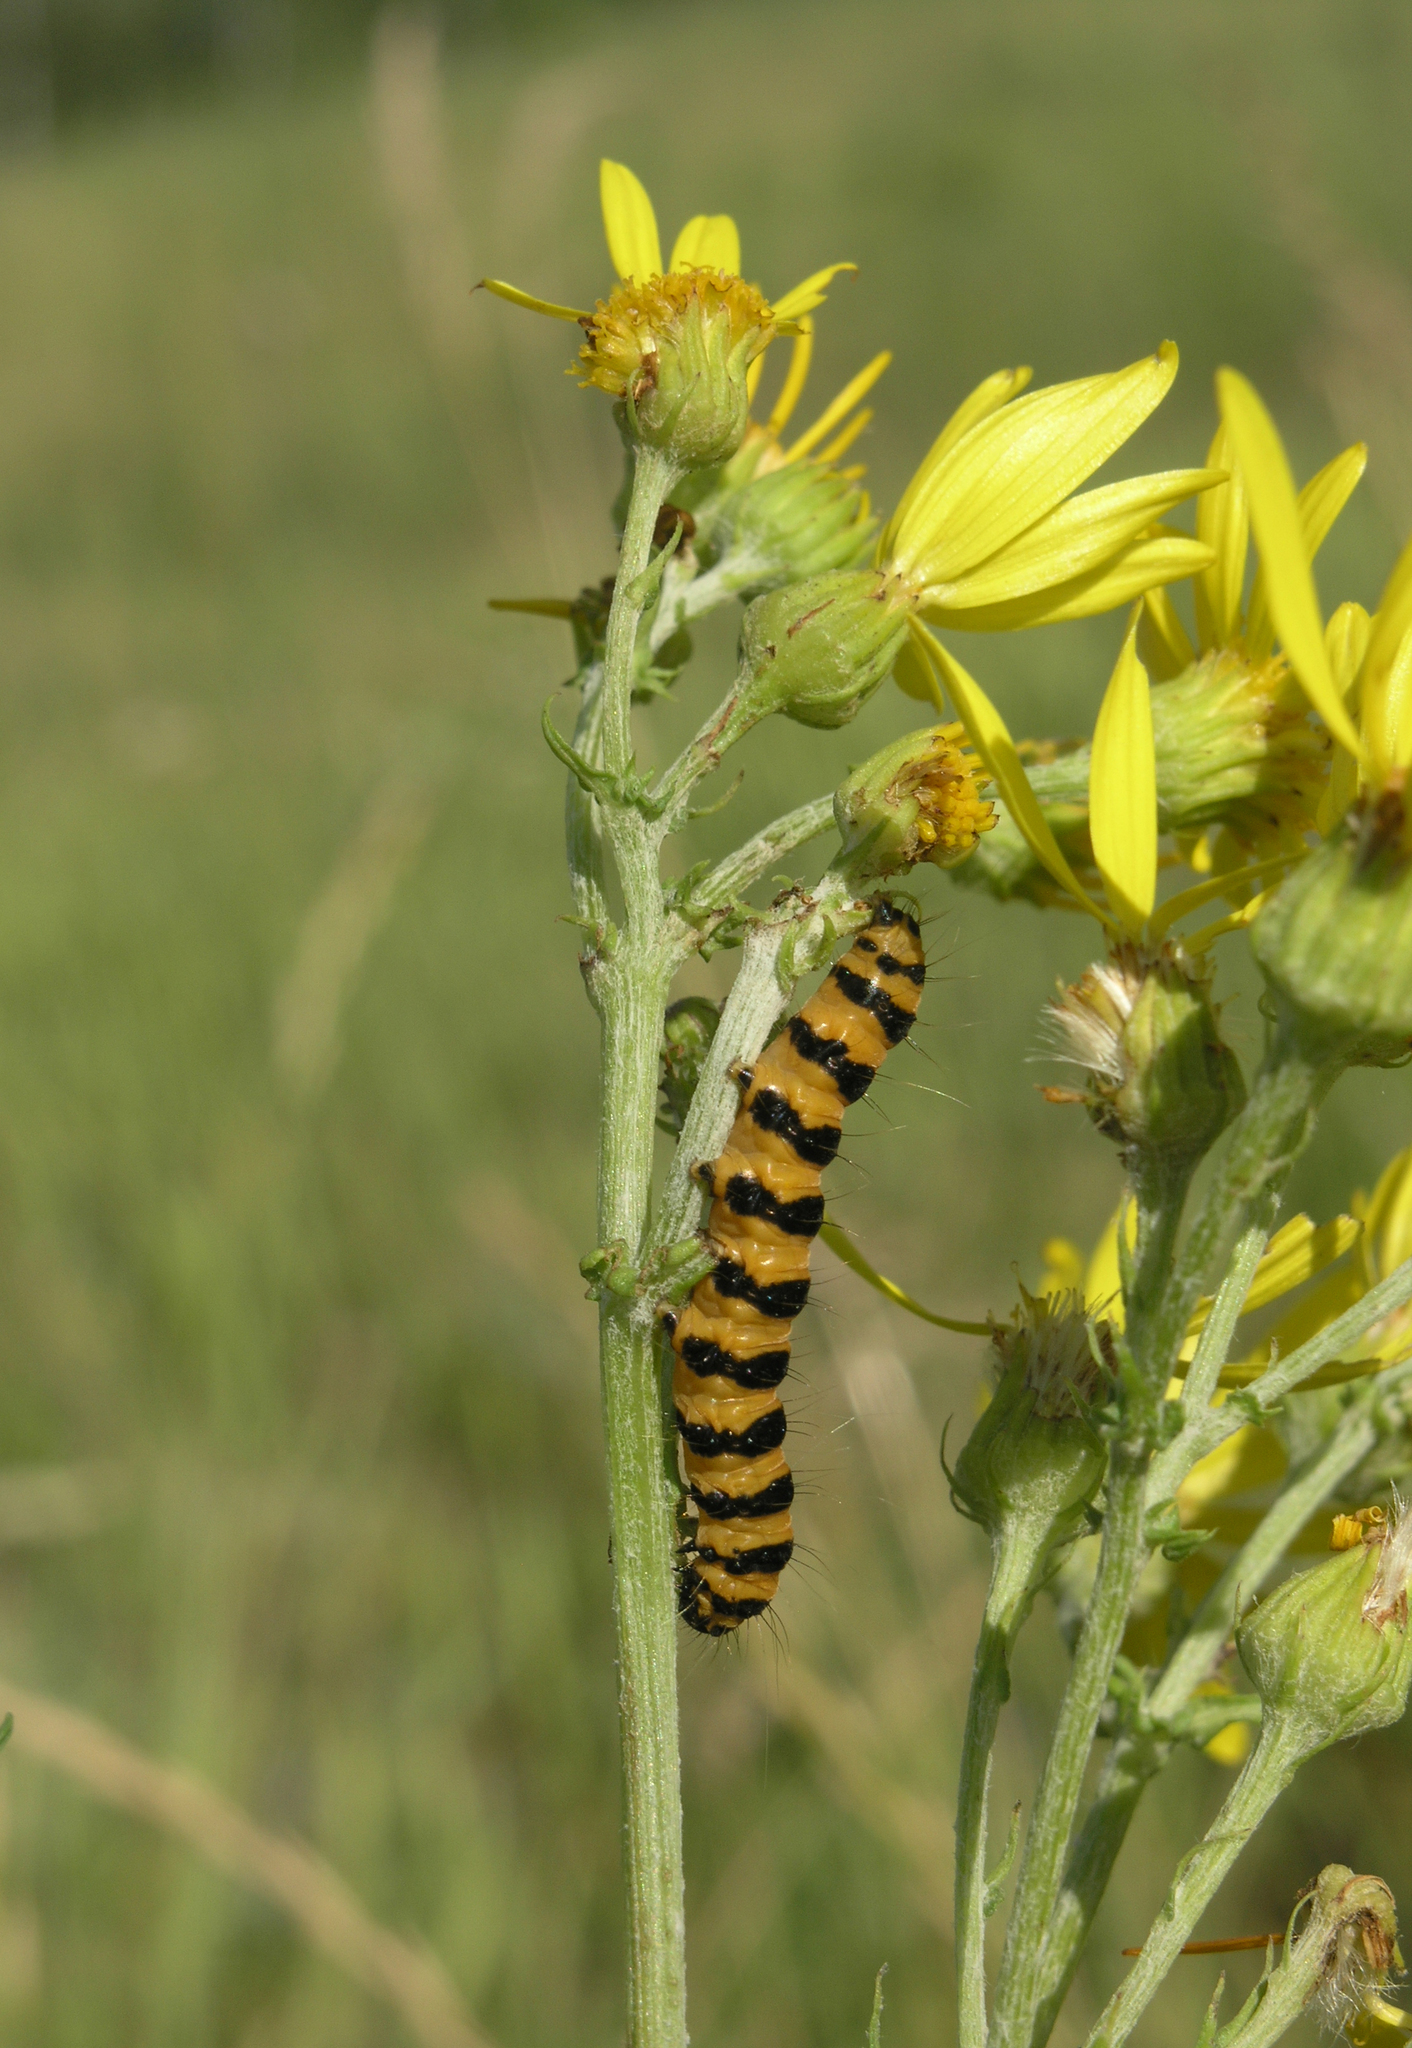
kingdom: Animalia
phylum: Arthropoda
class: Insecta
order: Lepidoptera
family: Erebidae
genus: Tyria
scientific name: Tyria jacobaeae
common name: Cinnabar
